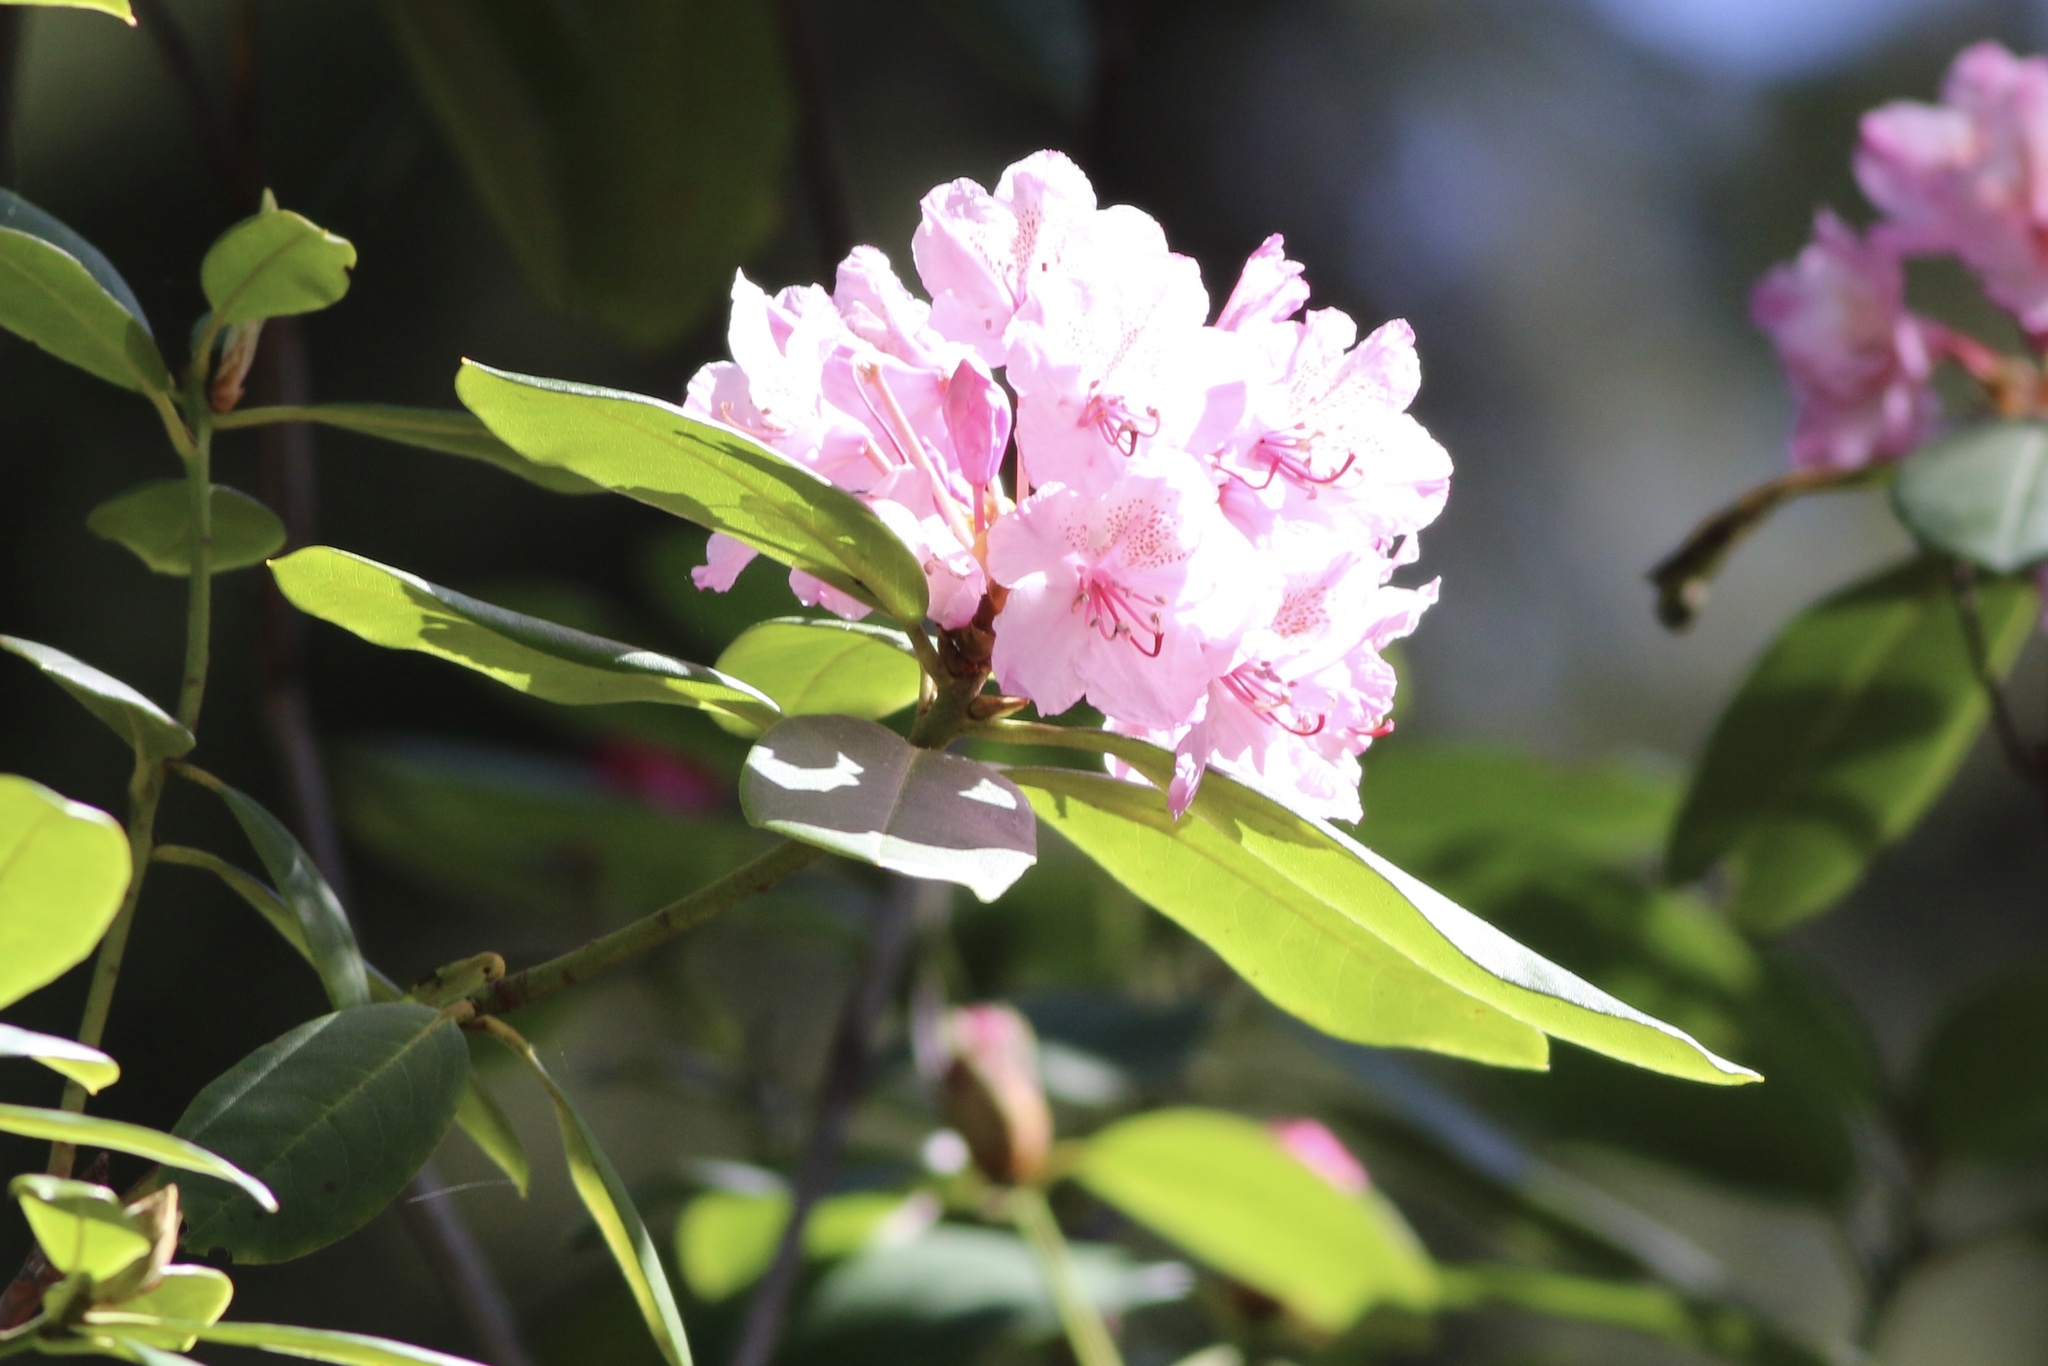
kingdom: Plantae
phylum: Tracheophyta
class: Magnoliopsida
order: Ericales
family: Ericaceae
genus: Rhododendron
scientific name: Rhododendron macrophyllum
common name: California rose bay
